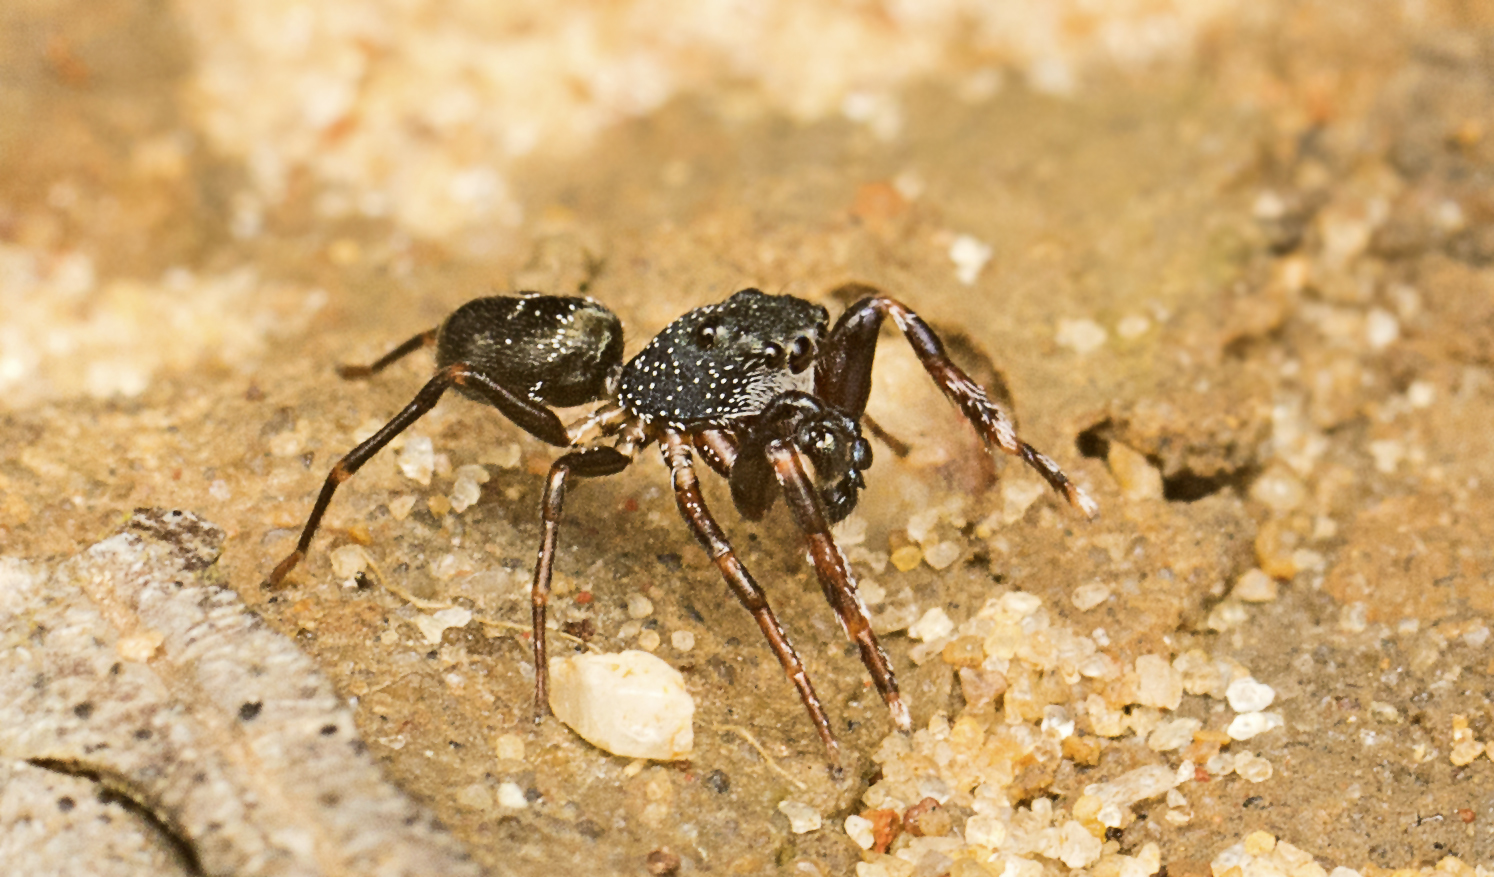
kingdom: Animalia
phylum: Arthropoda
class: Arachnida
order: Araneae
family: Salticidae
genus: Adoxotoma
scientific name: Adoxotoma nitida
